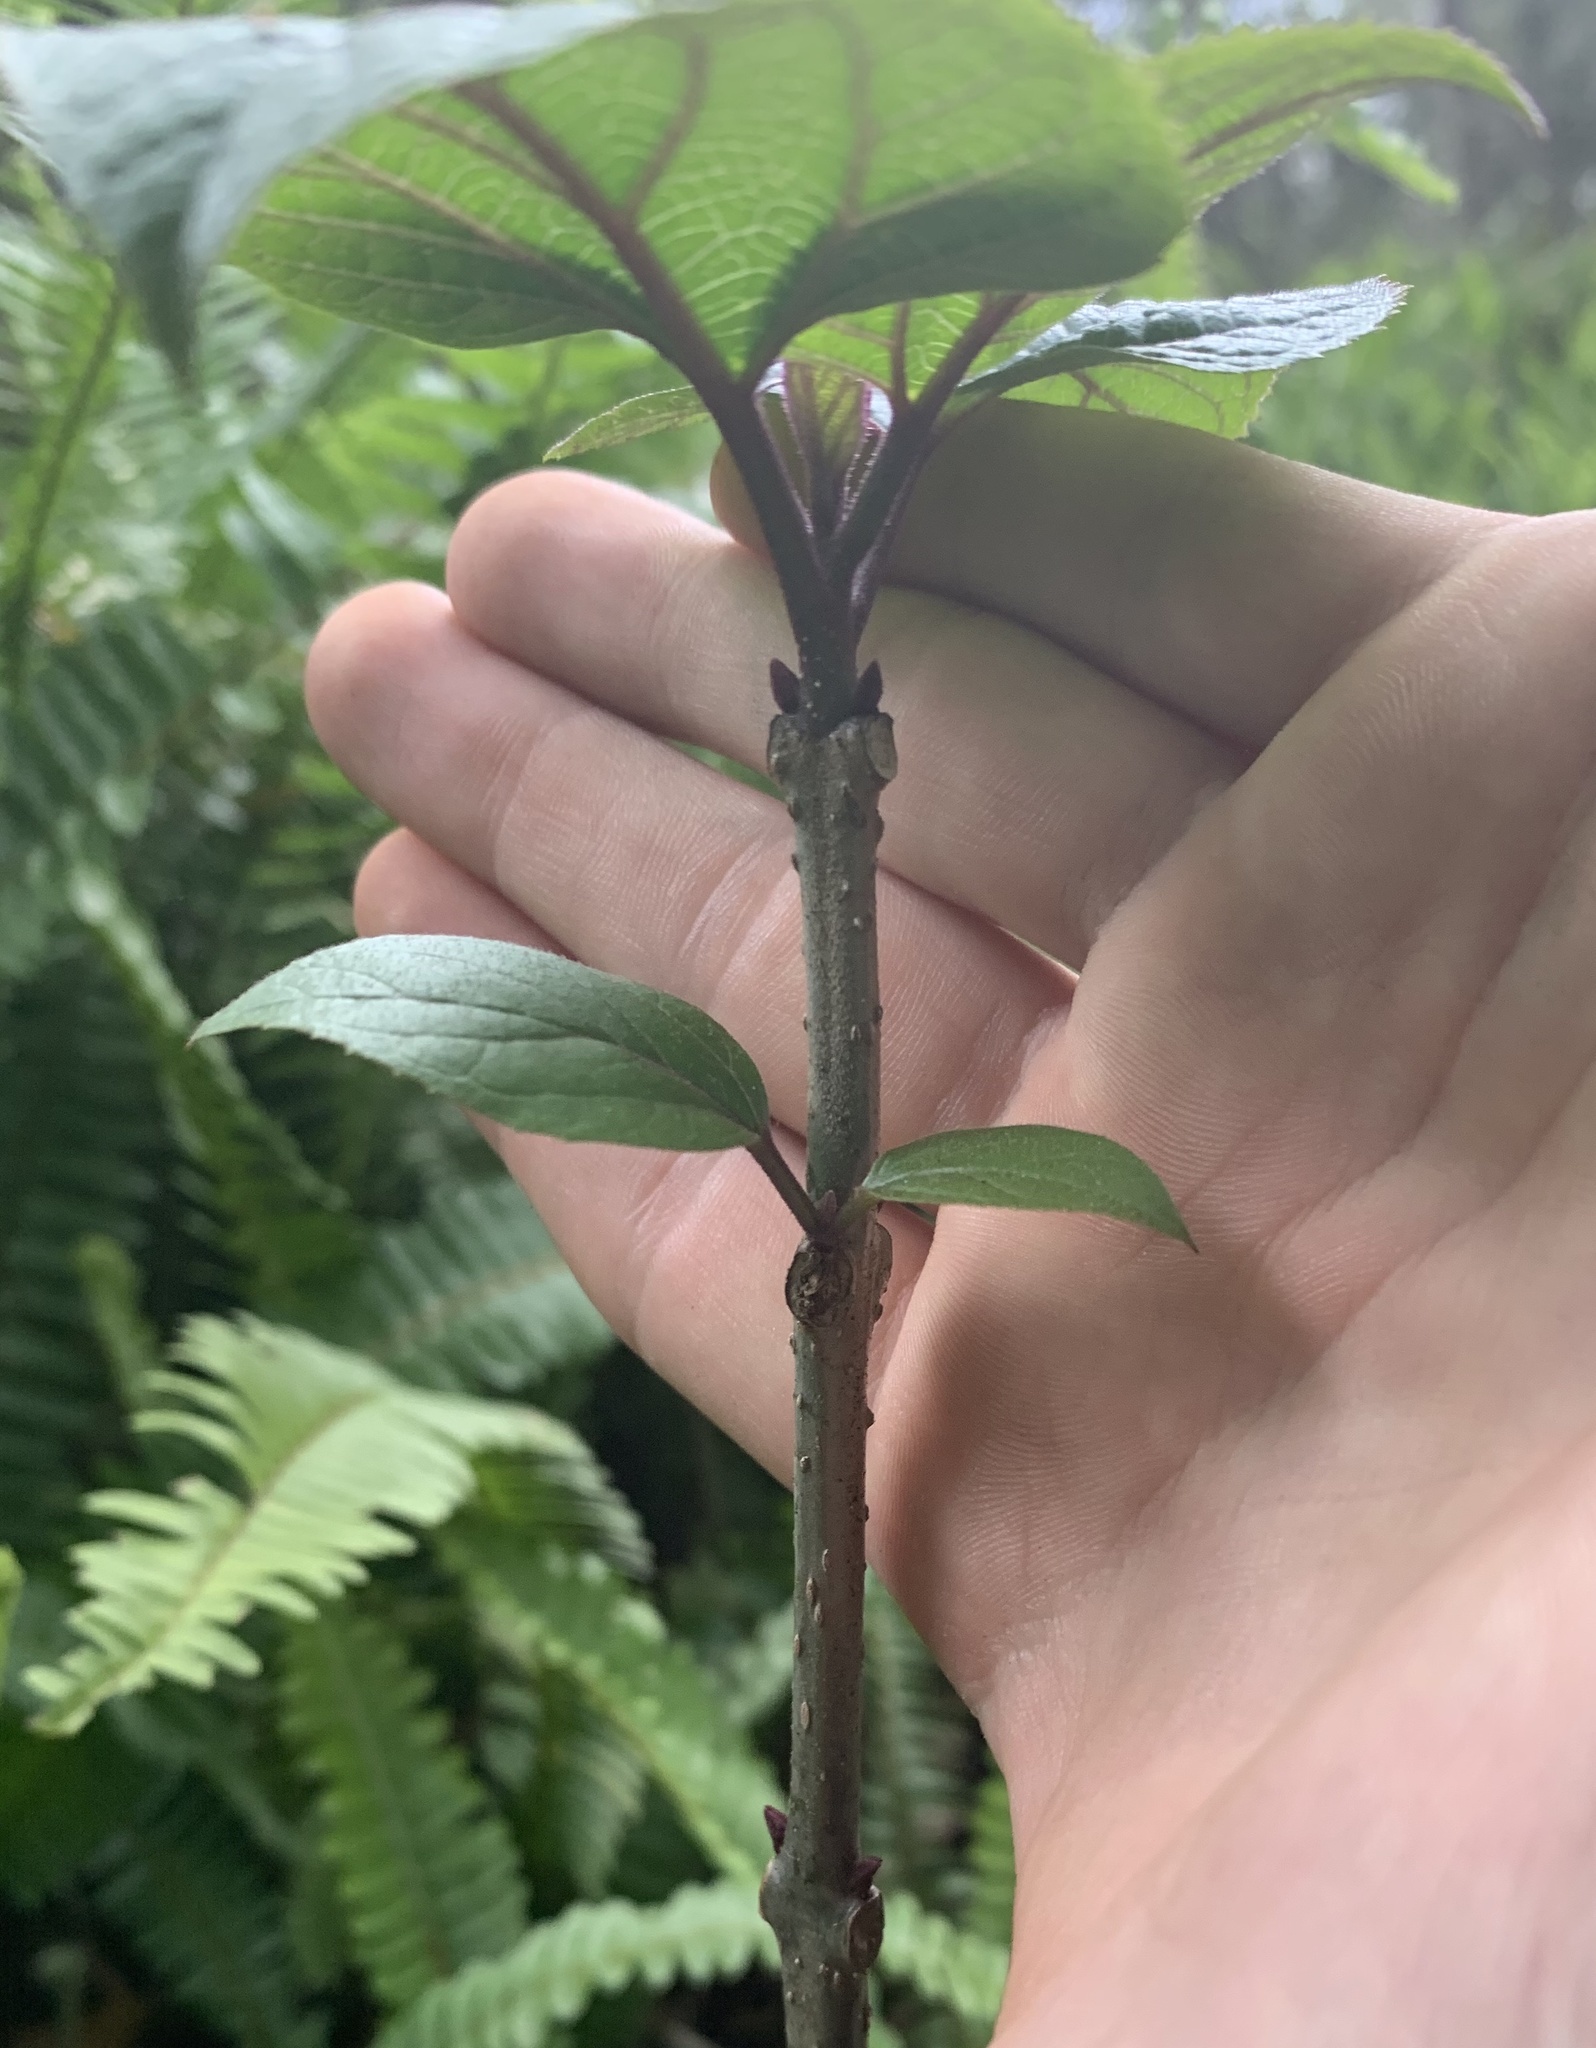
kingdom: Plantae
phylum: Tracheophyta
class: Magnoliopsida
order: Lamiales
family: Lamiaceae
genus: Clerodendrum
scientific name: Clerodendrum bungei
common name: Rose glorybower
